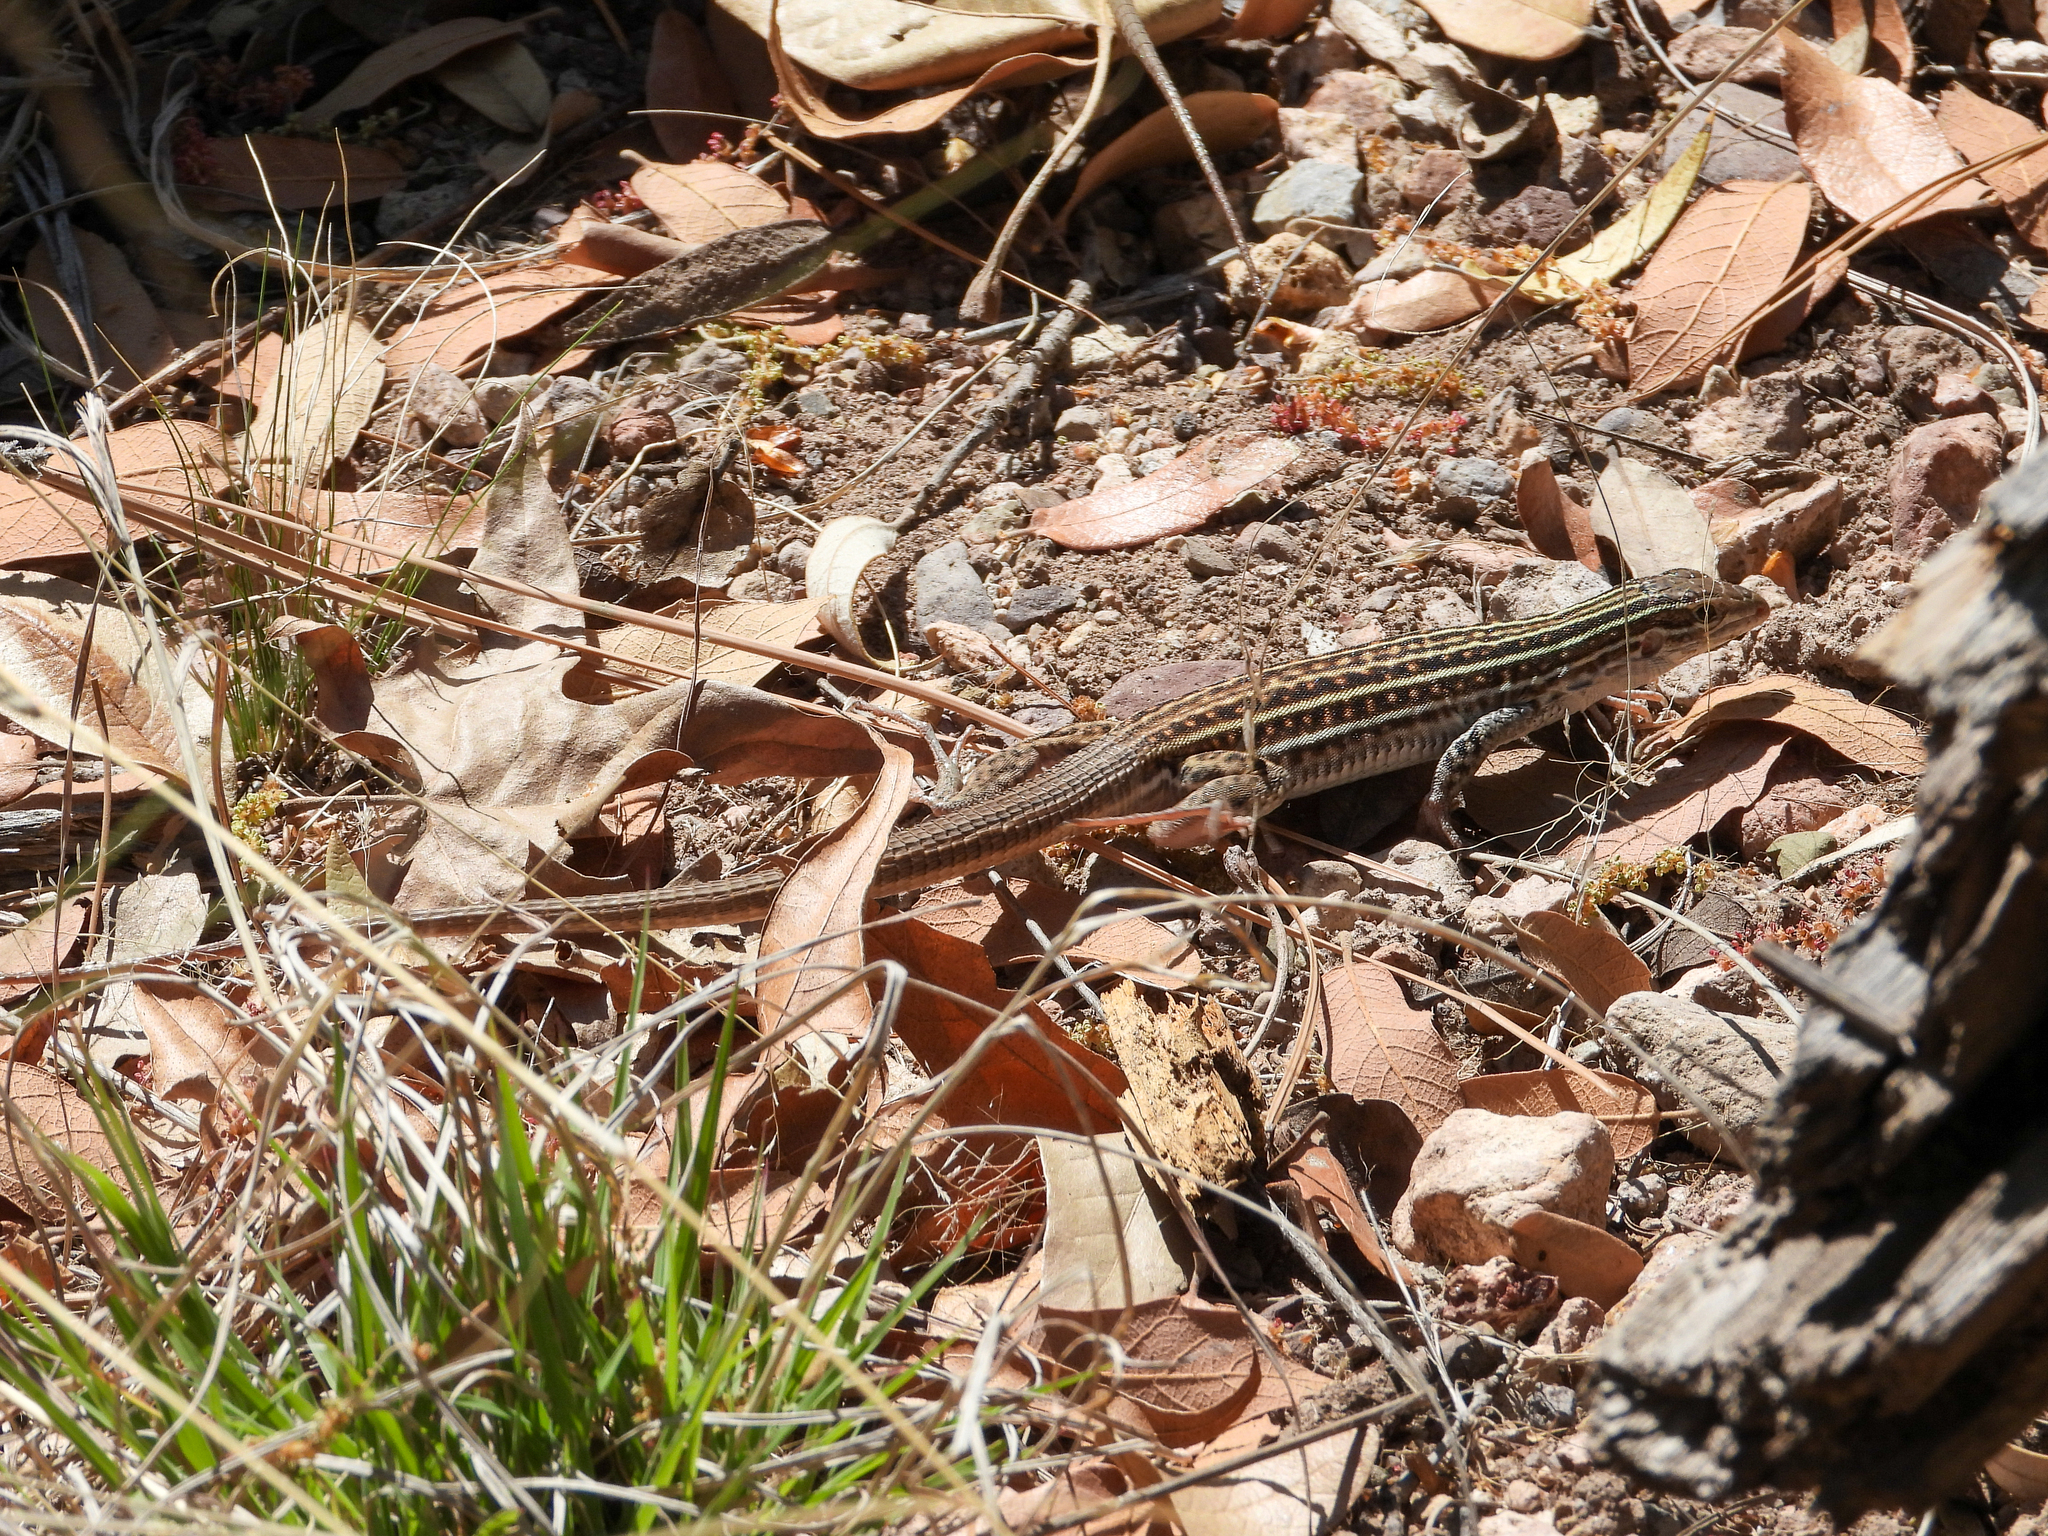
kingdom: Animalia
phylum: Chordata
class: Squamata
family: Teiidae
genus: Aspidoscelis
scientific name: Aspidoscelis exsanguis
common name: Chihuahuan spotted whiptail
